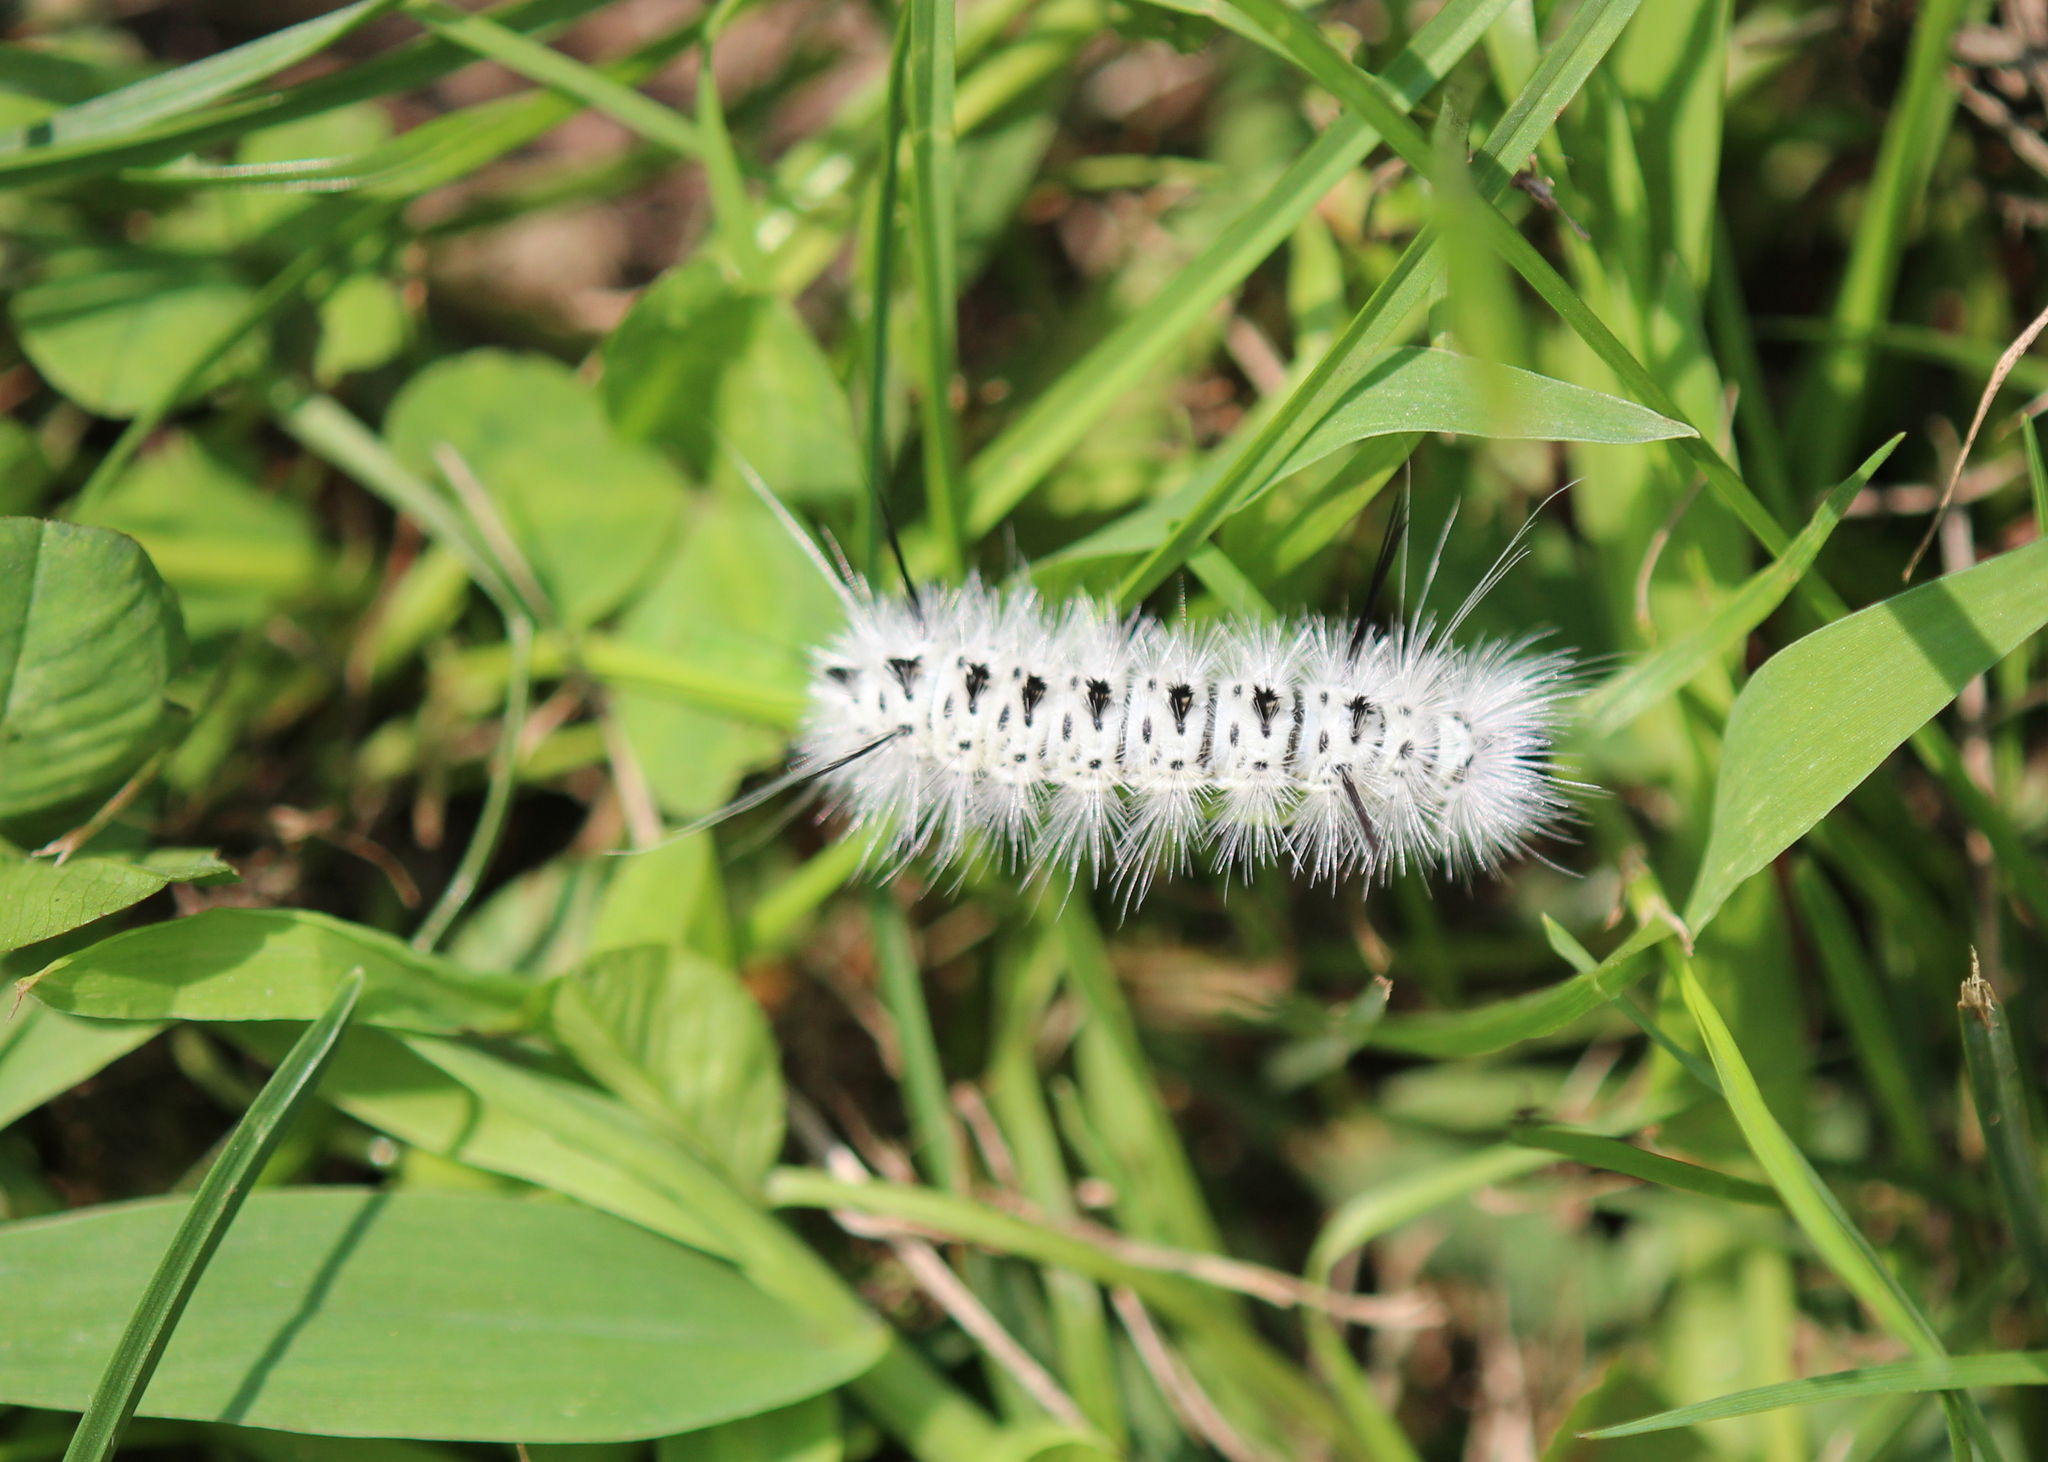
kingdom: Animalia
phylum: Arthropoda
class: Insecta
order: Lepidoptera
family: Erebidae
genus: Lophocampa
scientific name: Lophocampa caryae
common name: Hickory tussock moth
